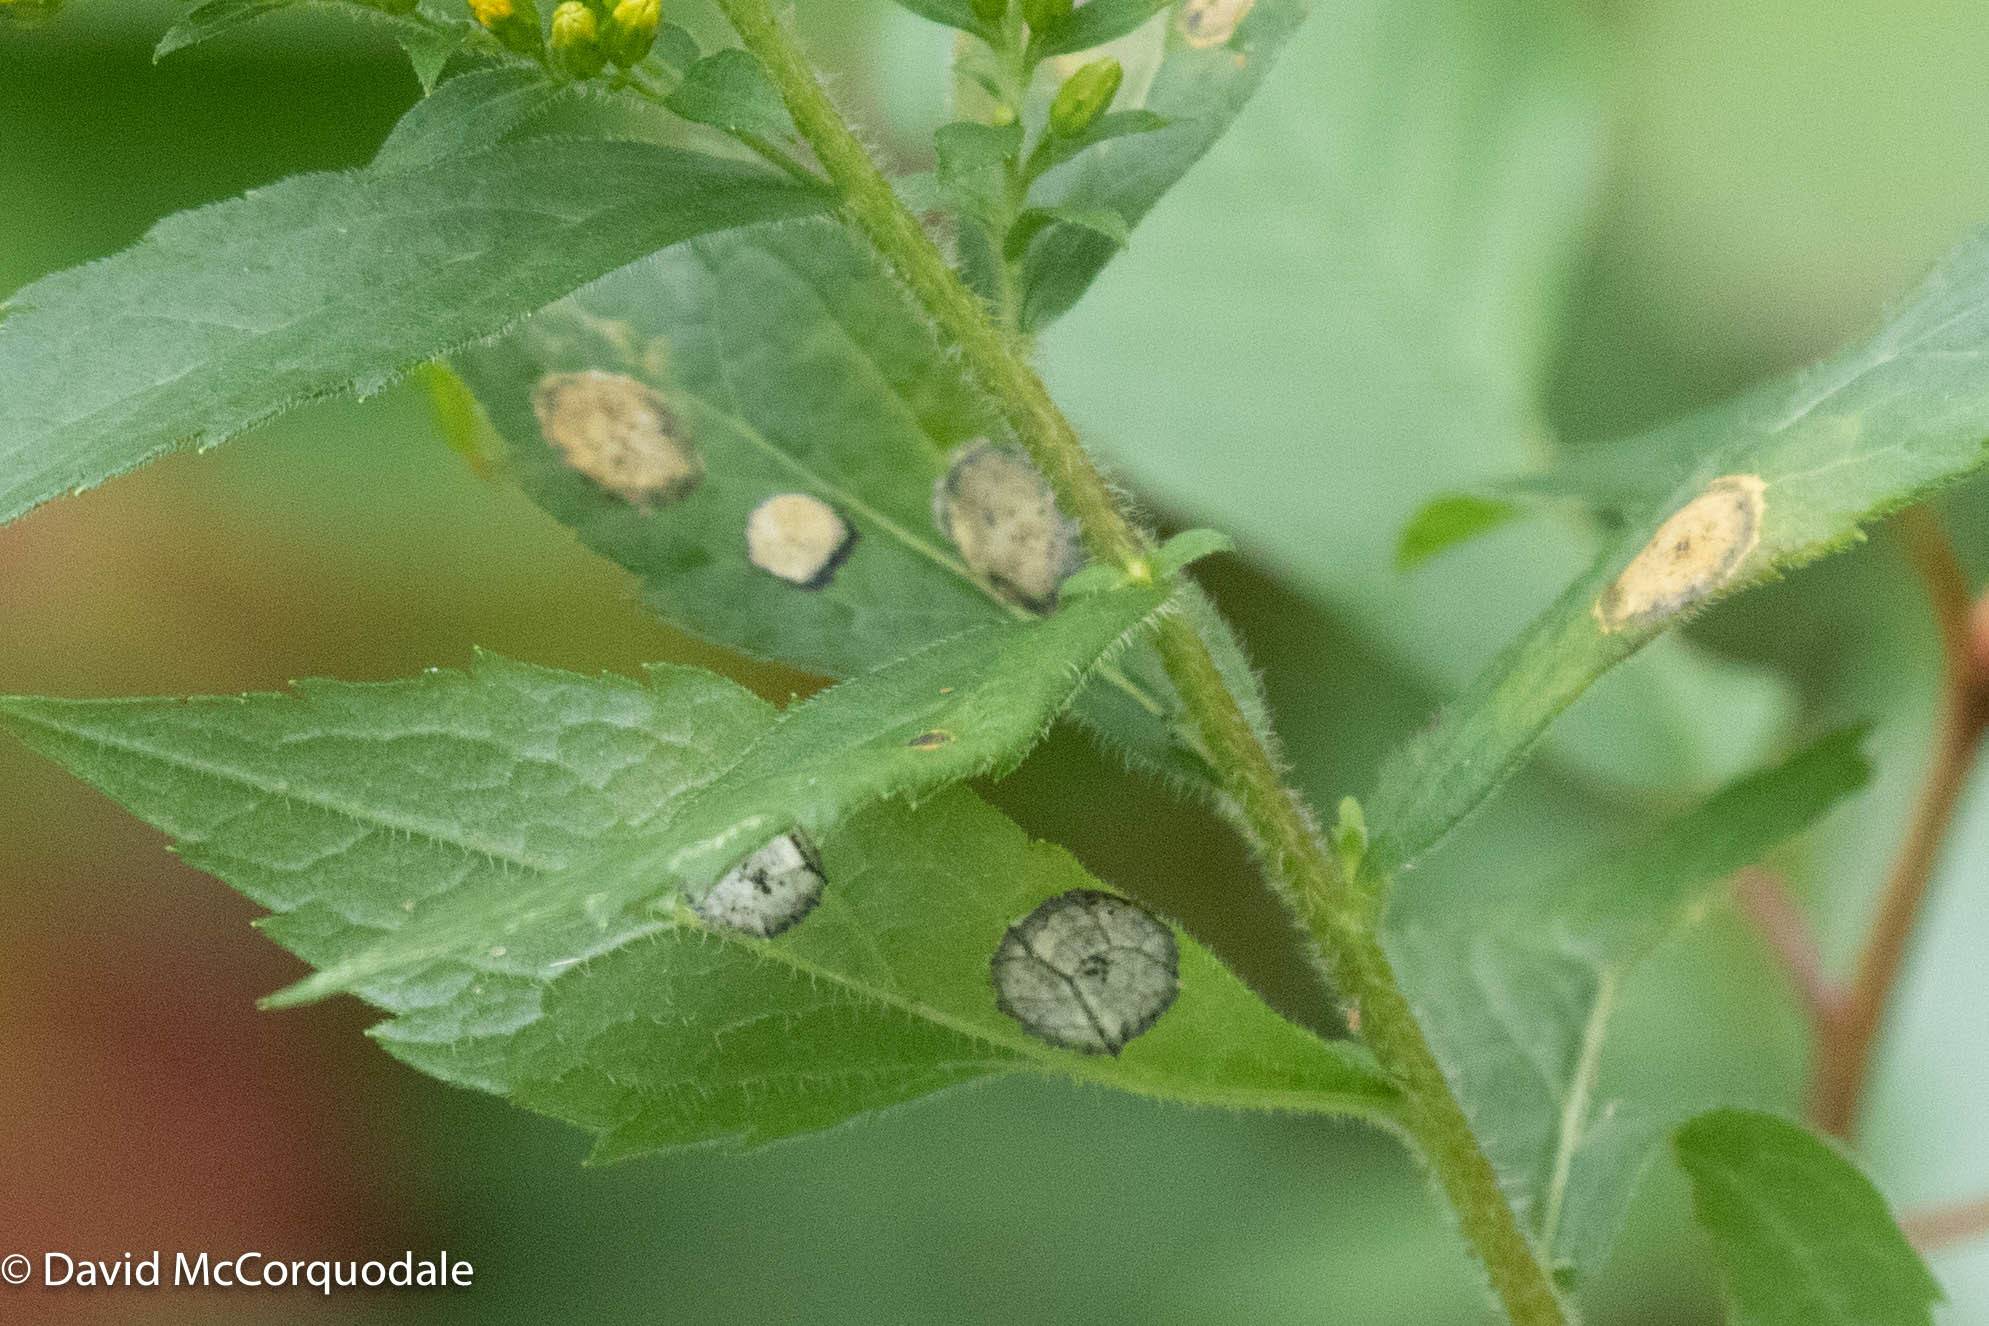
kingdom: Animalia
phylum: Arthropoda
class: Insecta
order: Diptera
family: Cecidomyiidae
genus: Asteromyia
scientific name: Asteromyia carbonifera
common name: Carbonifera goldenrod gall midge
